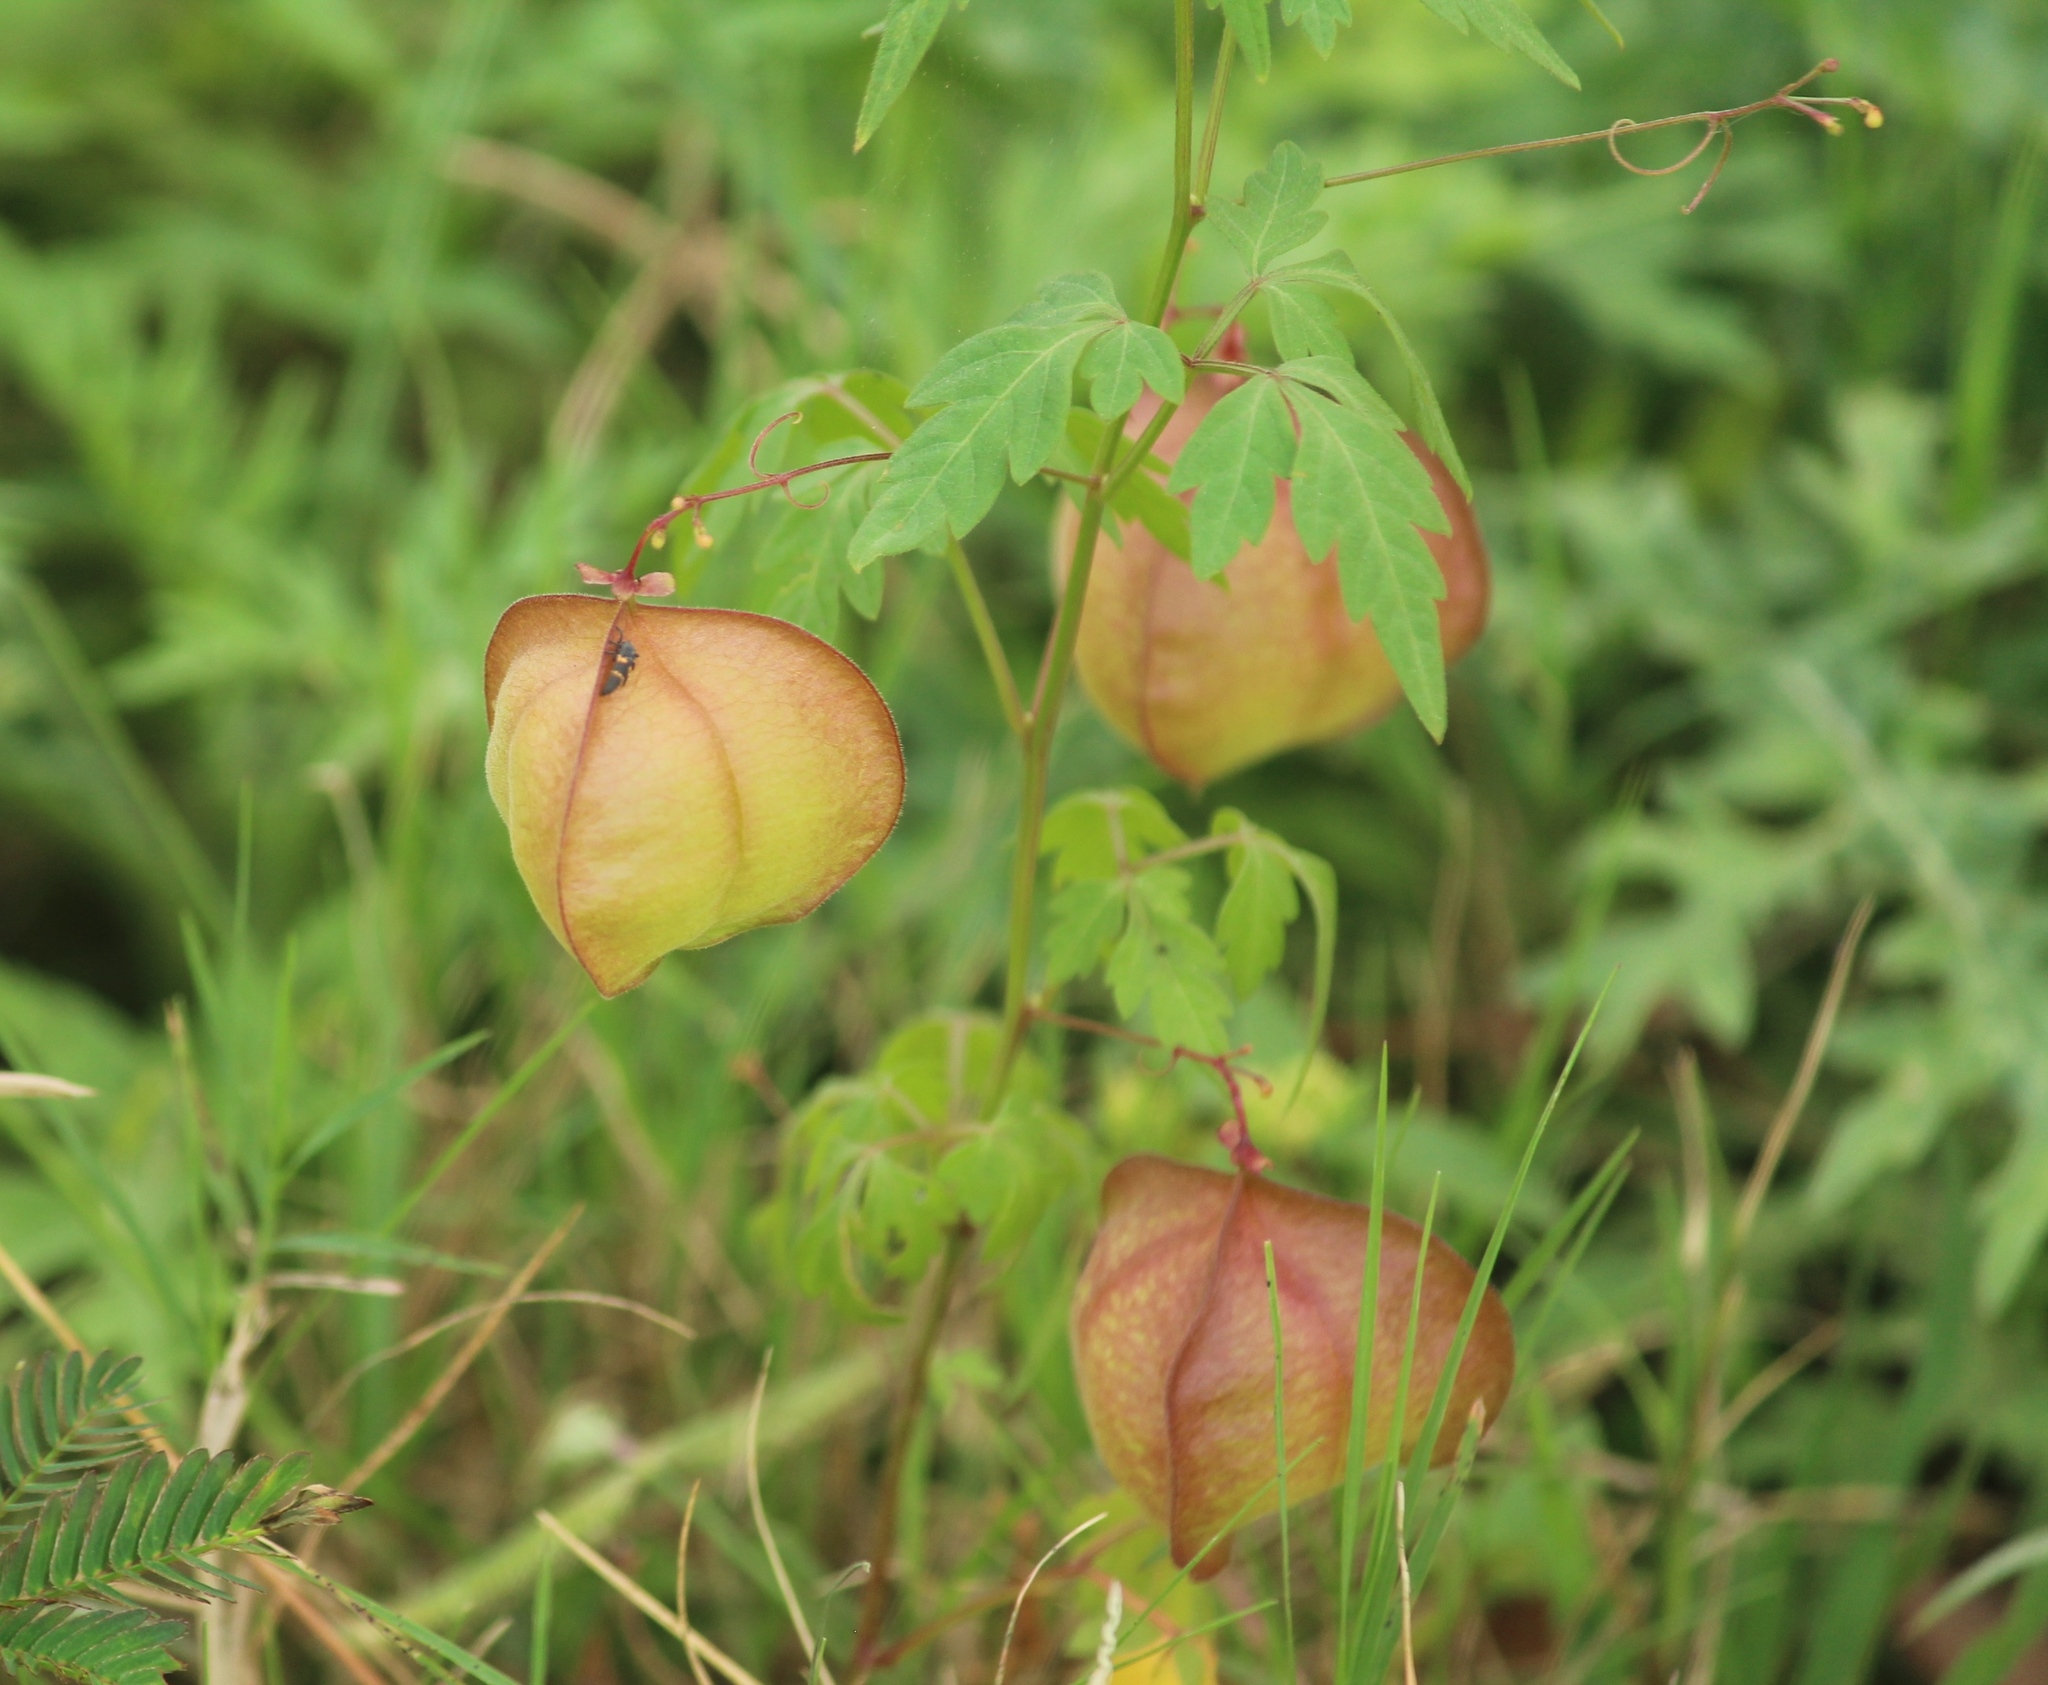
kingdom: Plantae
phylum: Tracheophyta
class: Magnoliopsida
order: Sapindales
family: Sapindaceae
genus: Cardiospermum
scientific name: Cardiospermum halicacabum
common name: Balloon vine
